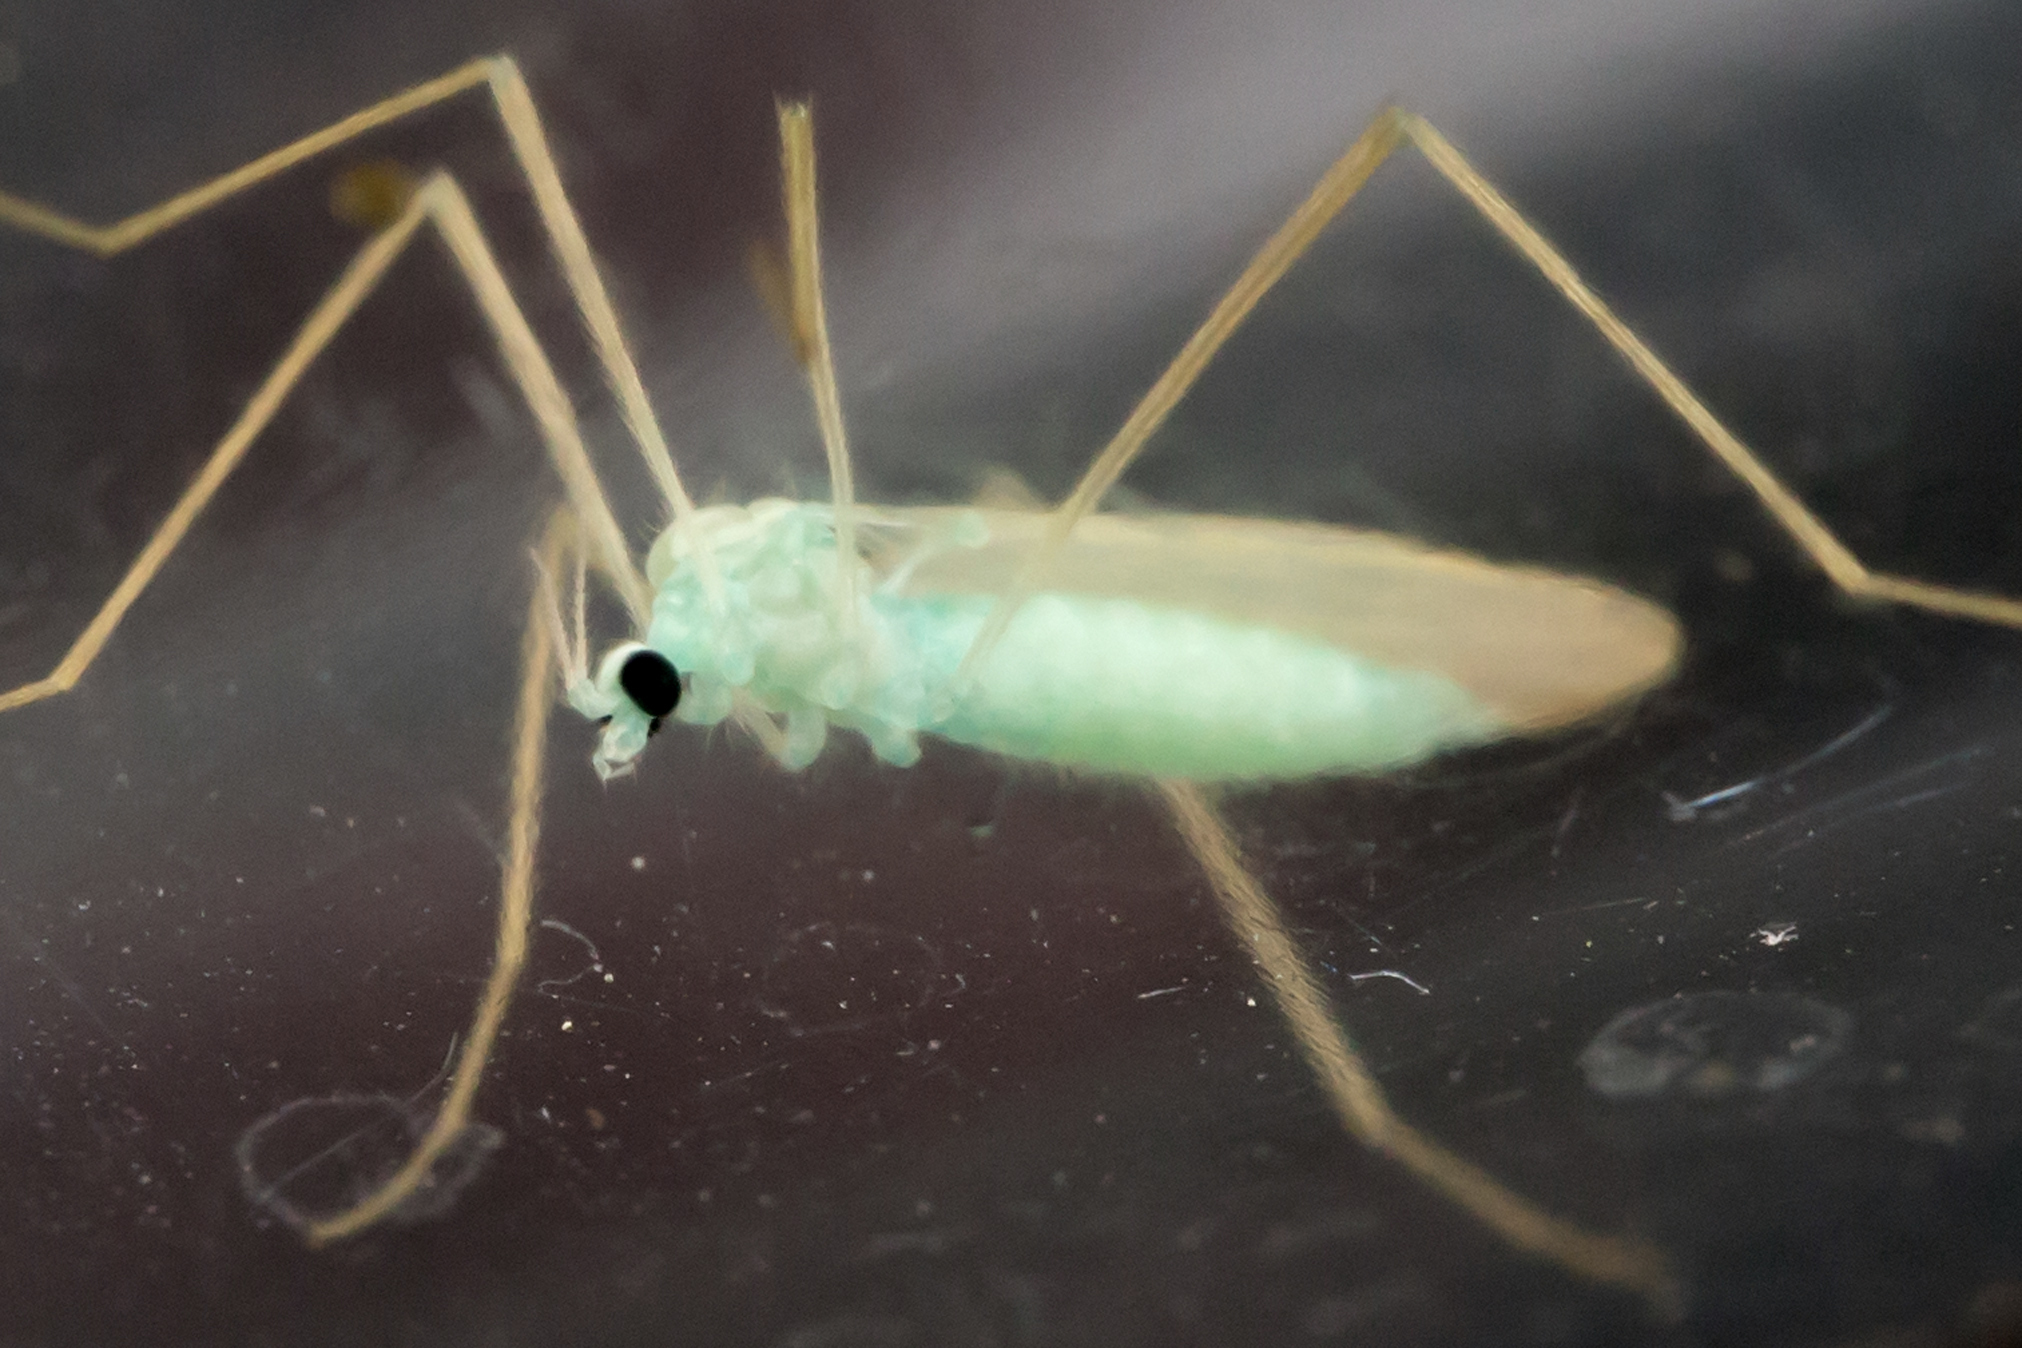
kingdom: Animalia
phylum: Arthropoda
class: Insecta
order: Diptera
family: Limoniidae
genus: Erioptera
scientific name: Erioptera
